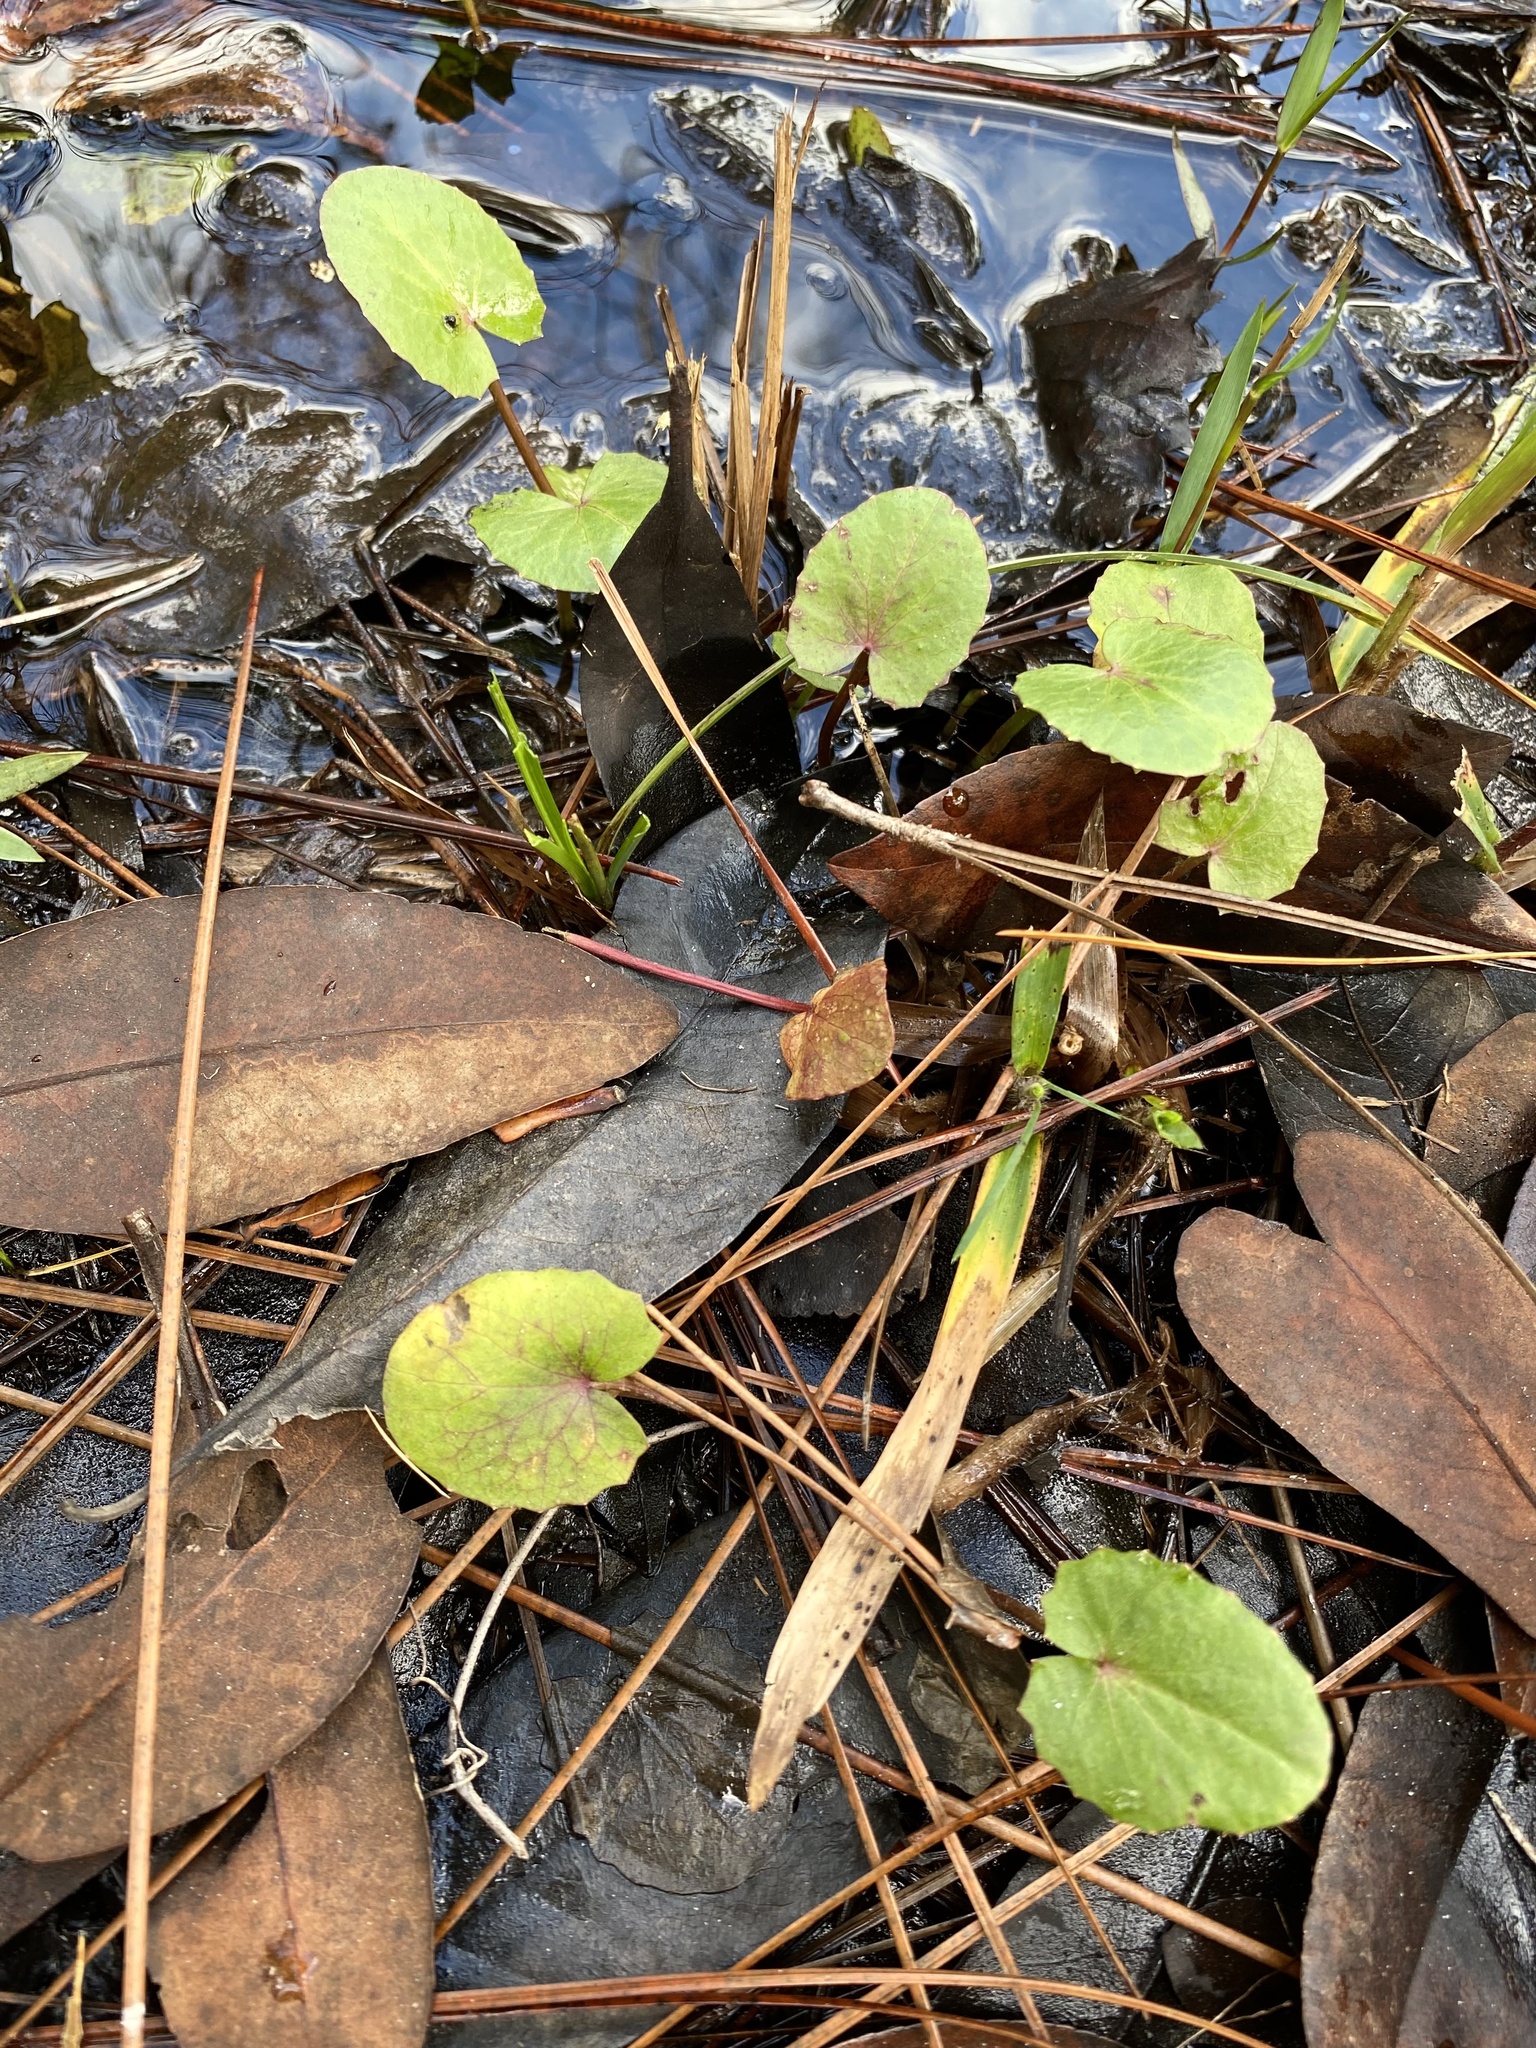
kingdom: Plantae
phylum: Tracheophyta
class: Magnoliopsida
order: Apiales
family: Apiaceae
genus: Centella
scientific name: Centella erecta
